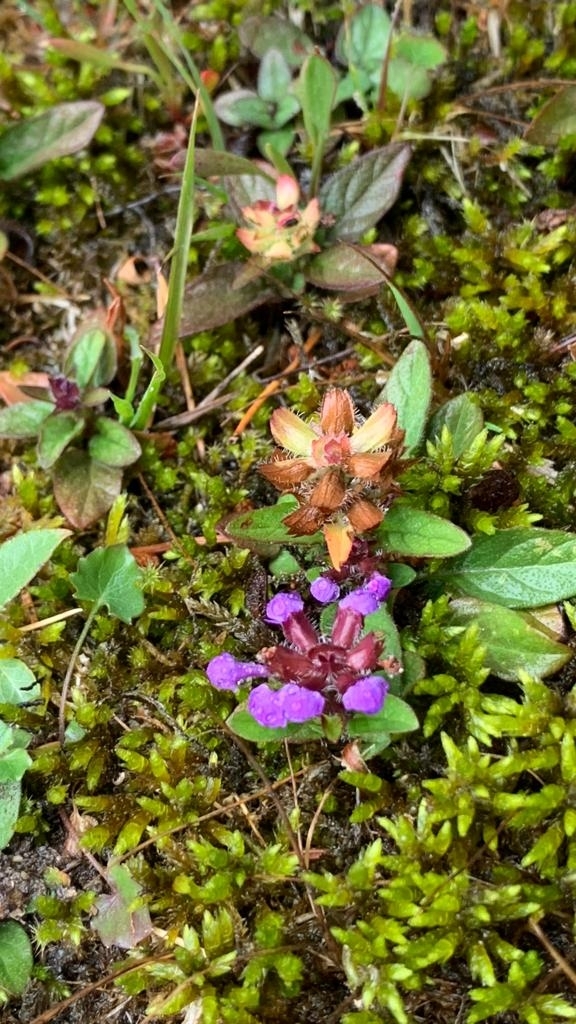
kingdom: Plantae
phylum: Tracheophyta
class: Magnoliopsida
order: Lamiales
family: Lamiaceae
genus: Prunella
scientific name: Prunella vulgaris
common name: Heal-all
